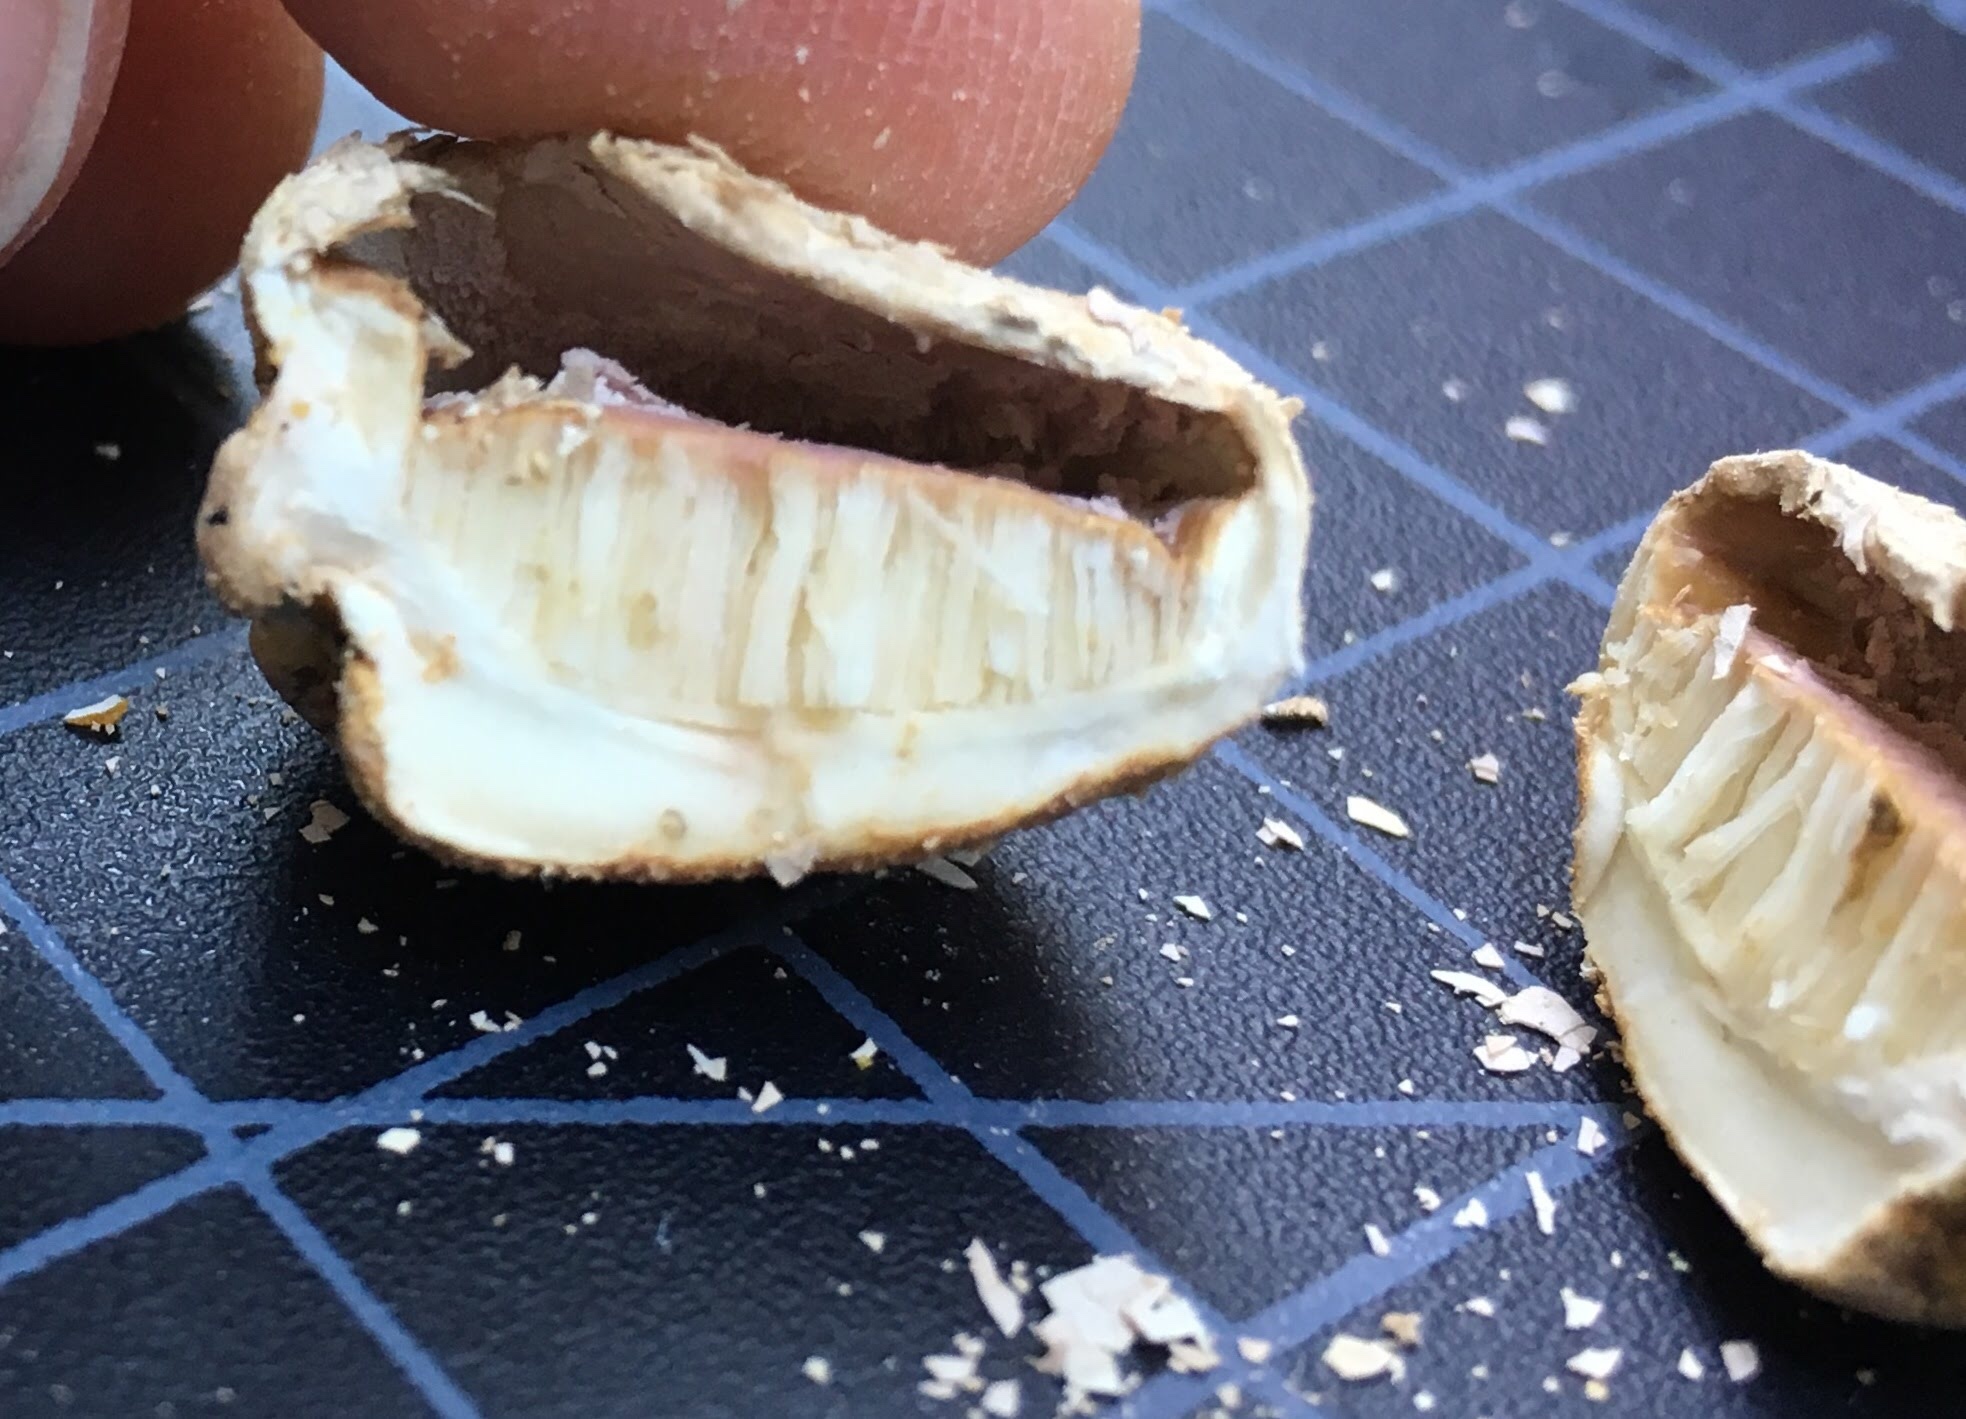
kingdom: Fungi
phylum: Basidiomycota
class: Agaricomycetes
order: Polyporales
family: Polyporaceae
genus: Cryptoporus
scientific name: Cryptoporus volvatus
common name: Veiled polypore
